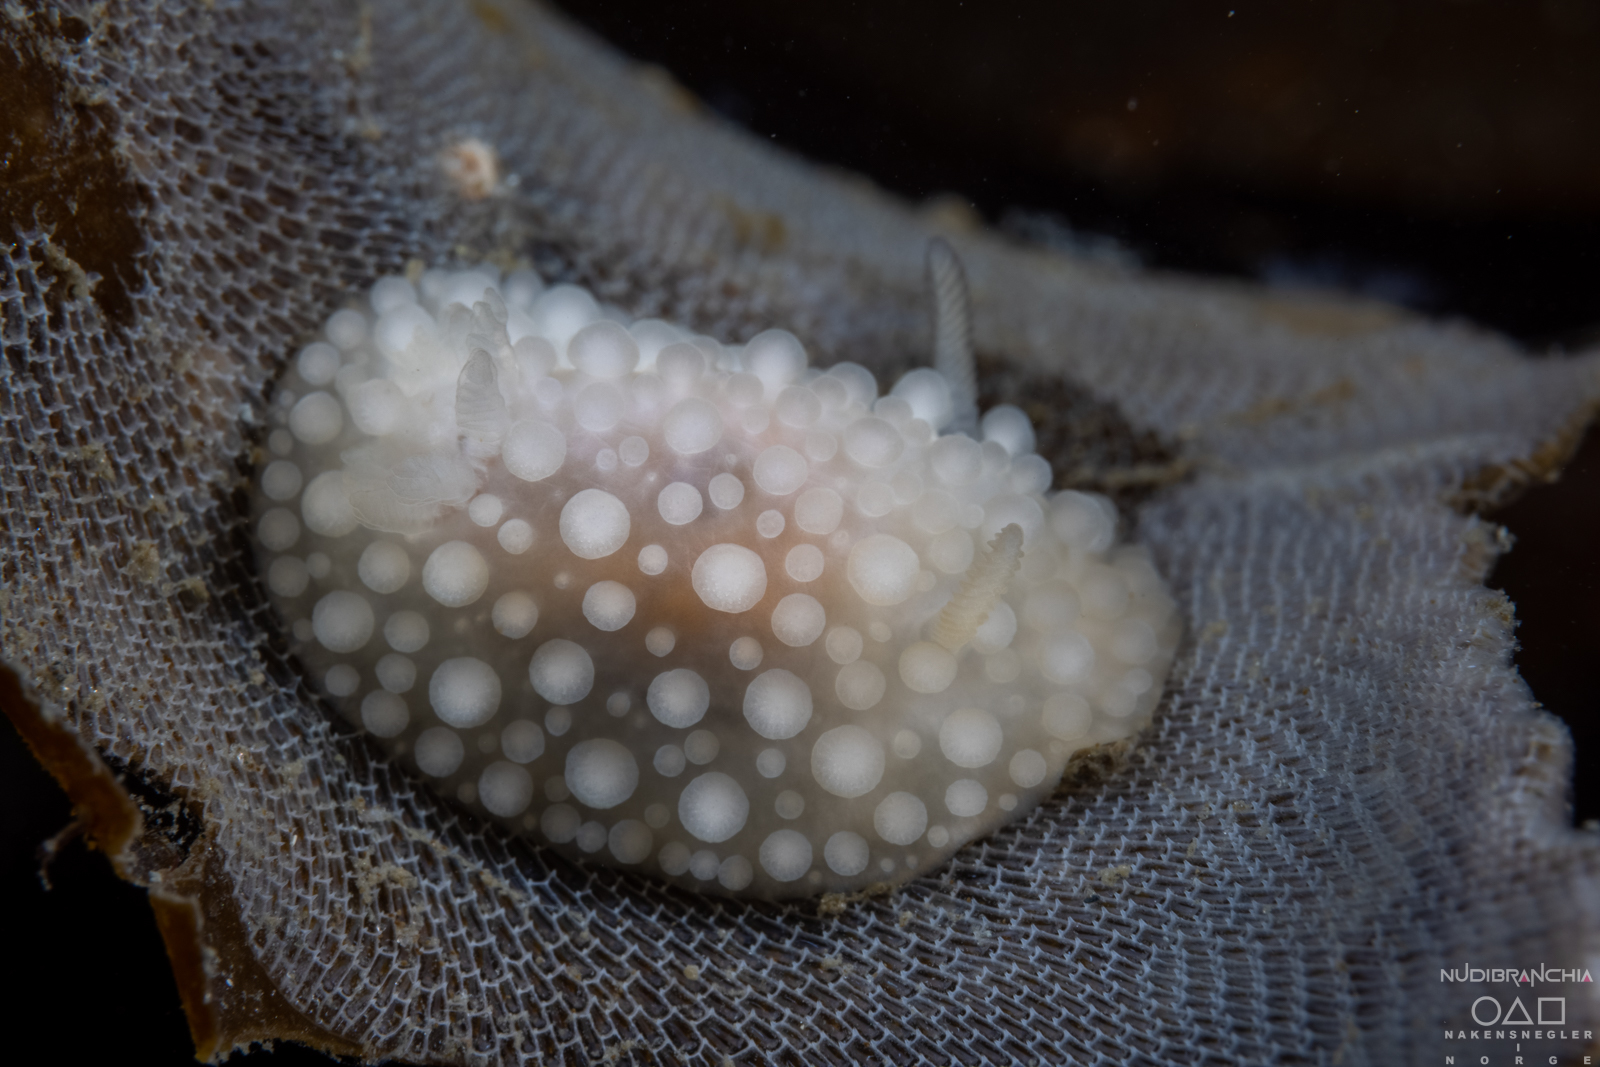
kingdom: Animalia
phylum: Mollusca
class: Gastropoda
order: Nudibranchia
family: Onchidorididae
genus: Adalaria
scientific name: Adalaria proxima
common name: False doris
